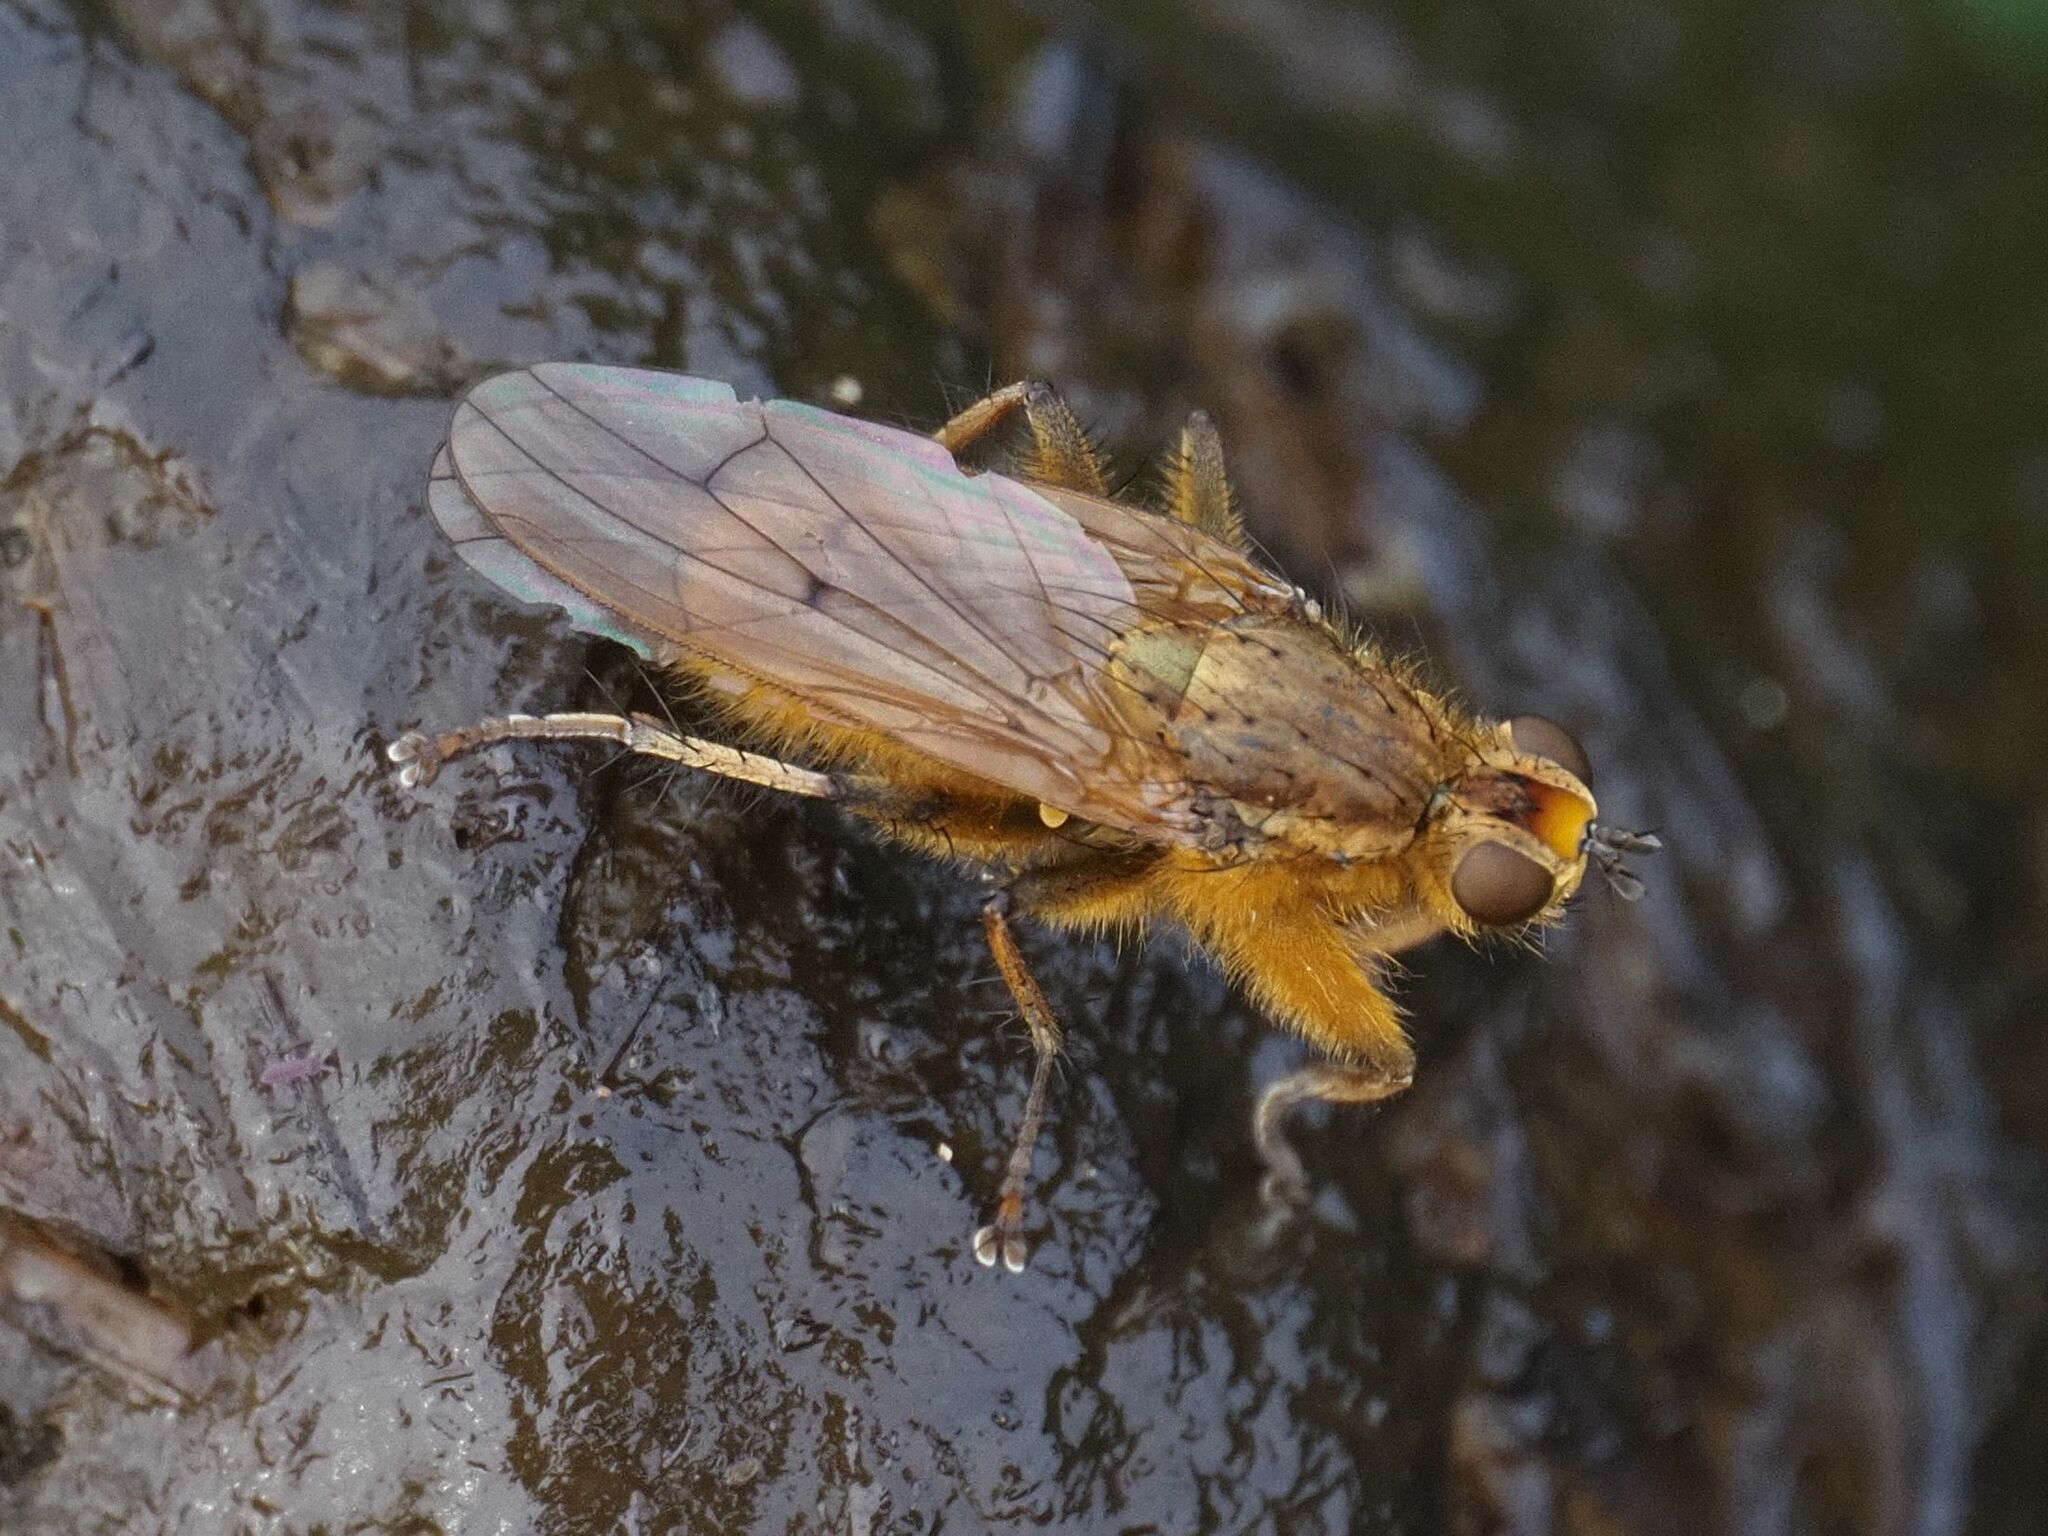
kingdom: Animalia
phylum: Arthropoda
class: Insecta
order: Diptera
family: Scathophagidae
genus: Scathophaga
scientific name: Scathophaga stercoraria
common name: Yellow dung fly
